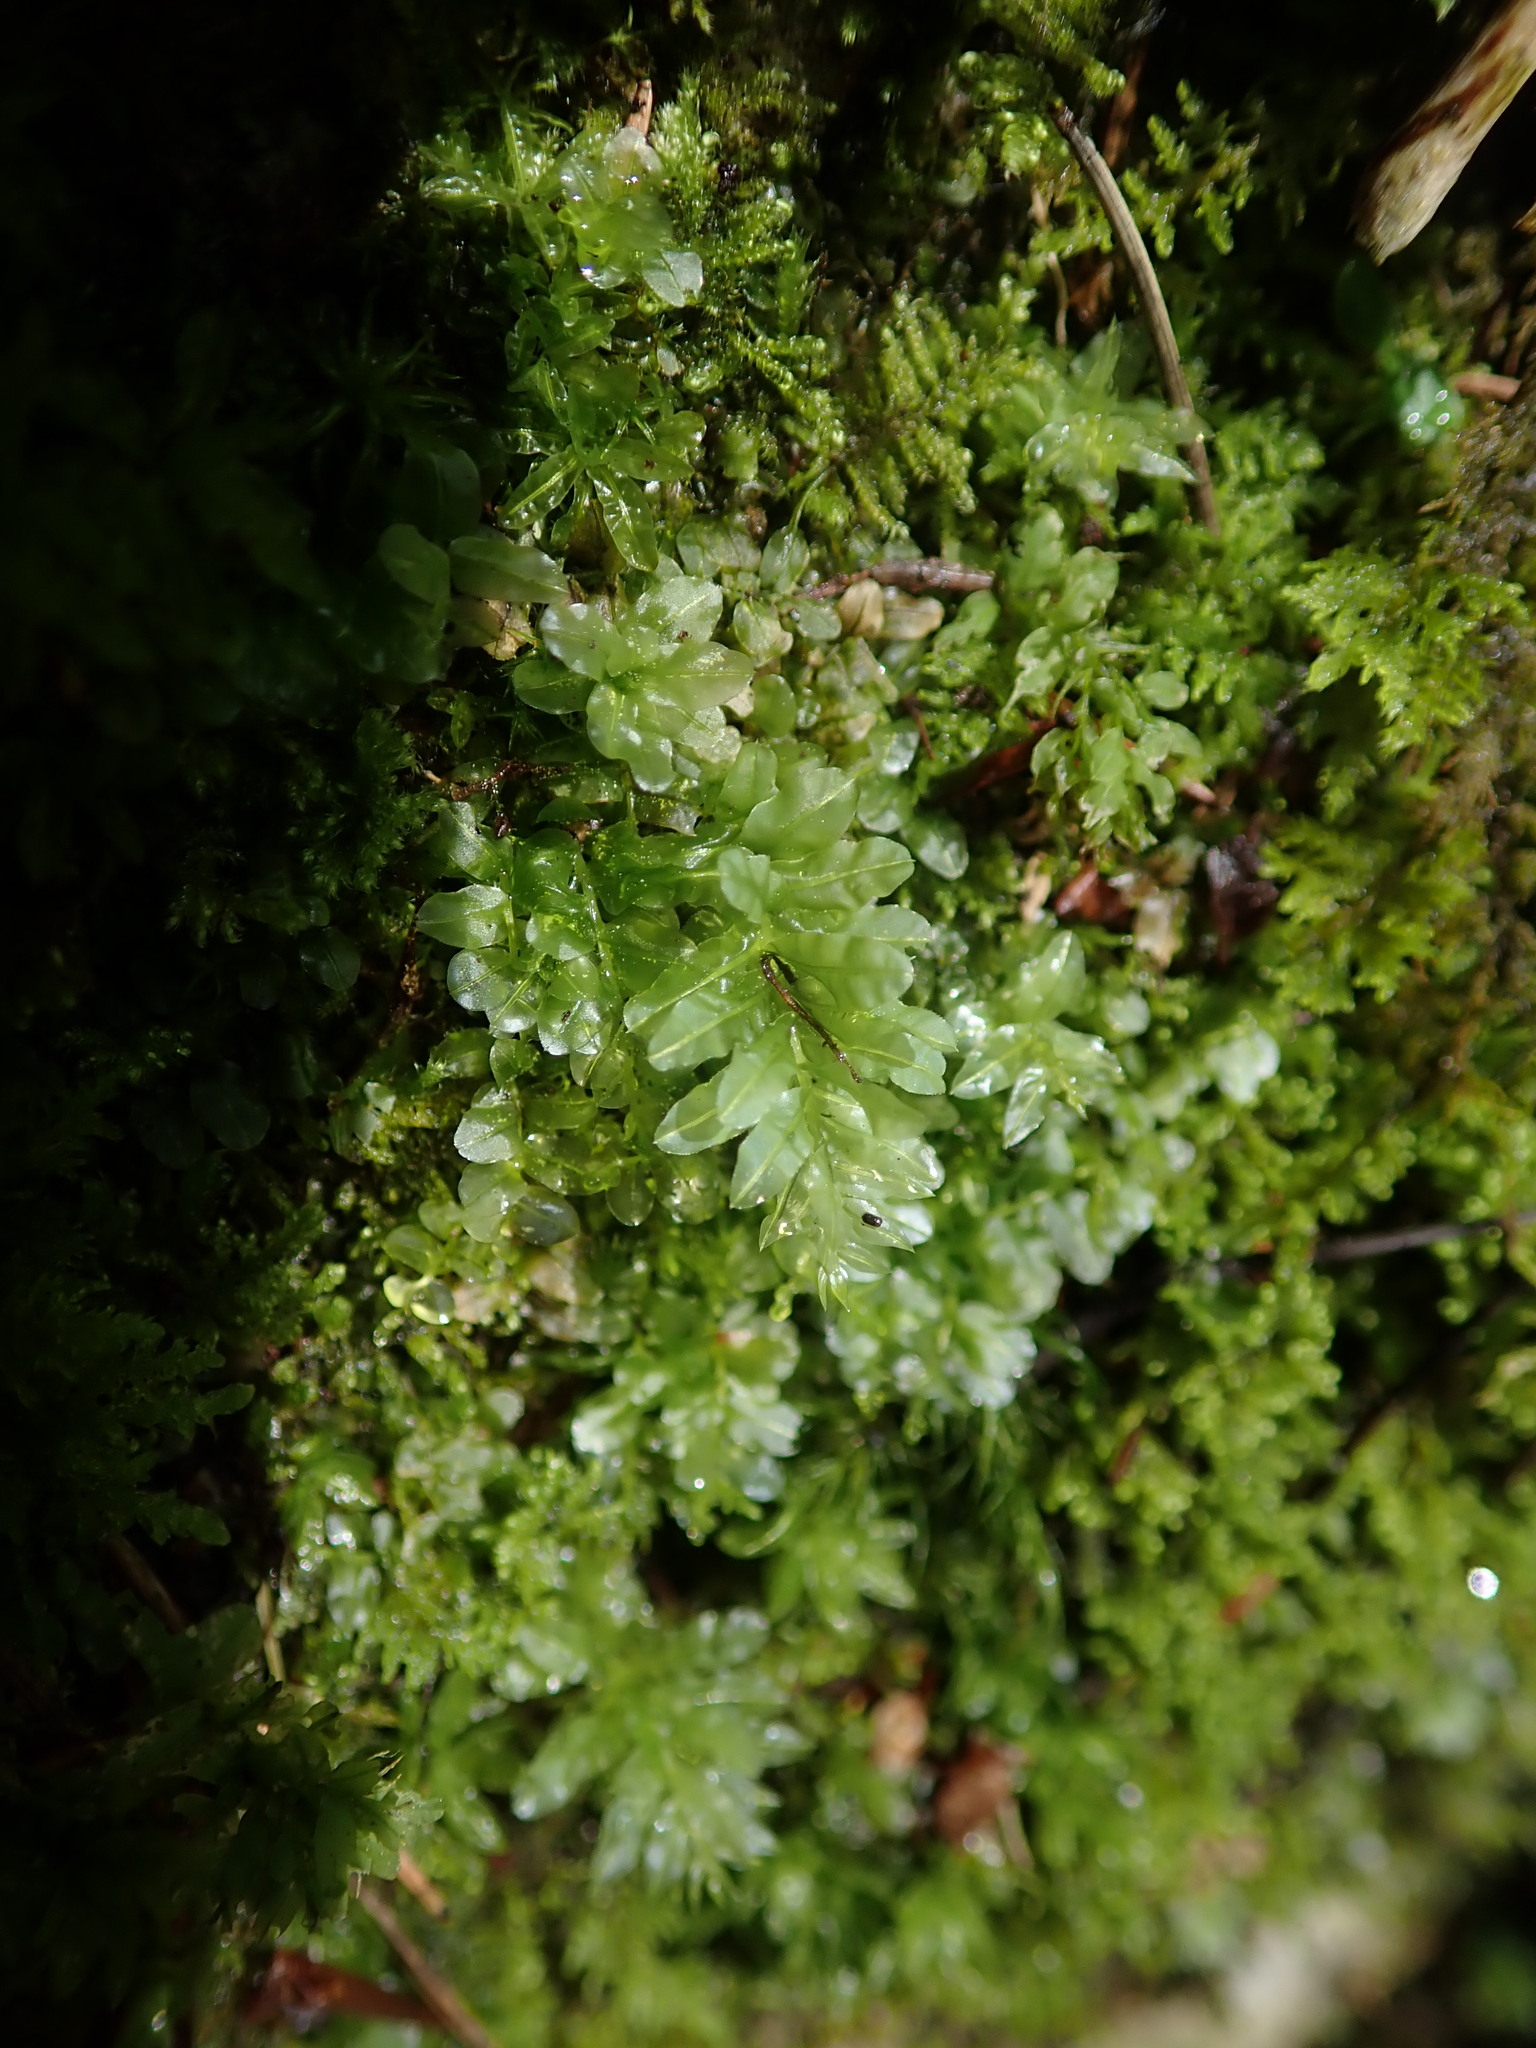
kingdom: Plantae
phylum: Bryophyta
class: Bryopsida
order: Bryales
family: Mniaceae
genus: Plagiomnium
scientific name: Plagiomnium undulatum
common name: Hart's-tongue thyme-moss
